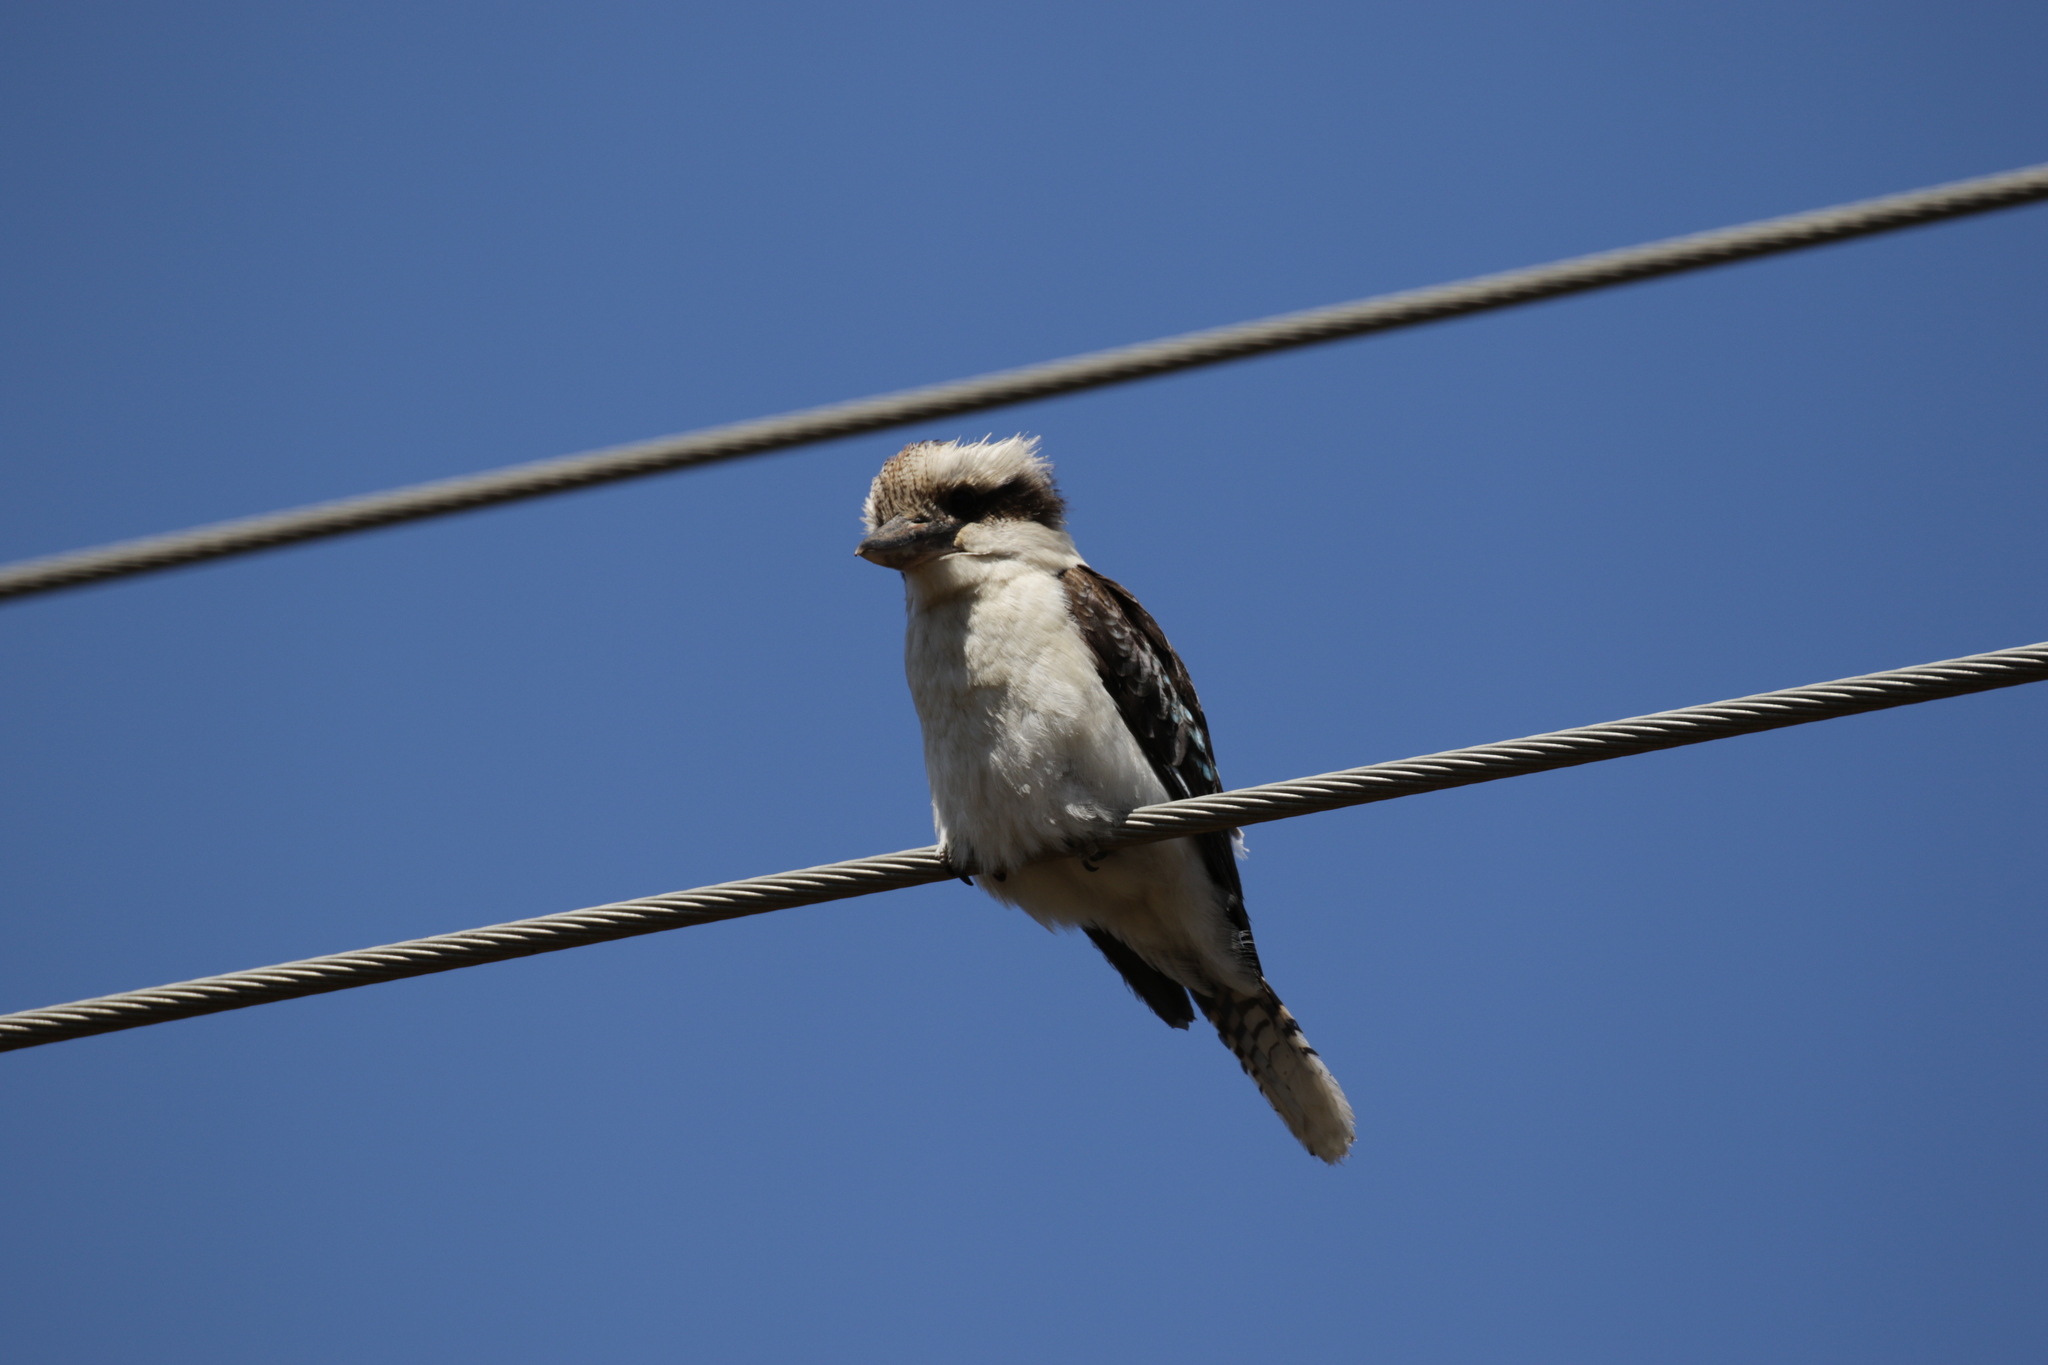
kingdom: Animalia
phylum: Chordata
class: Aves
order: Coraciiformes
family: Alcedinidae
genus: Dacelo
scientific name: Dacelo novaeguineae
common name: Laughing kookaburra
